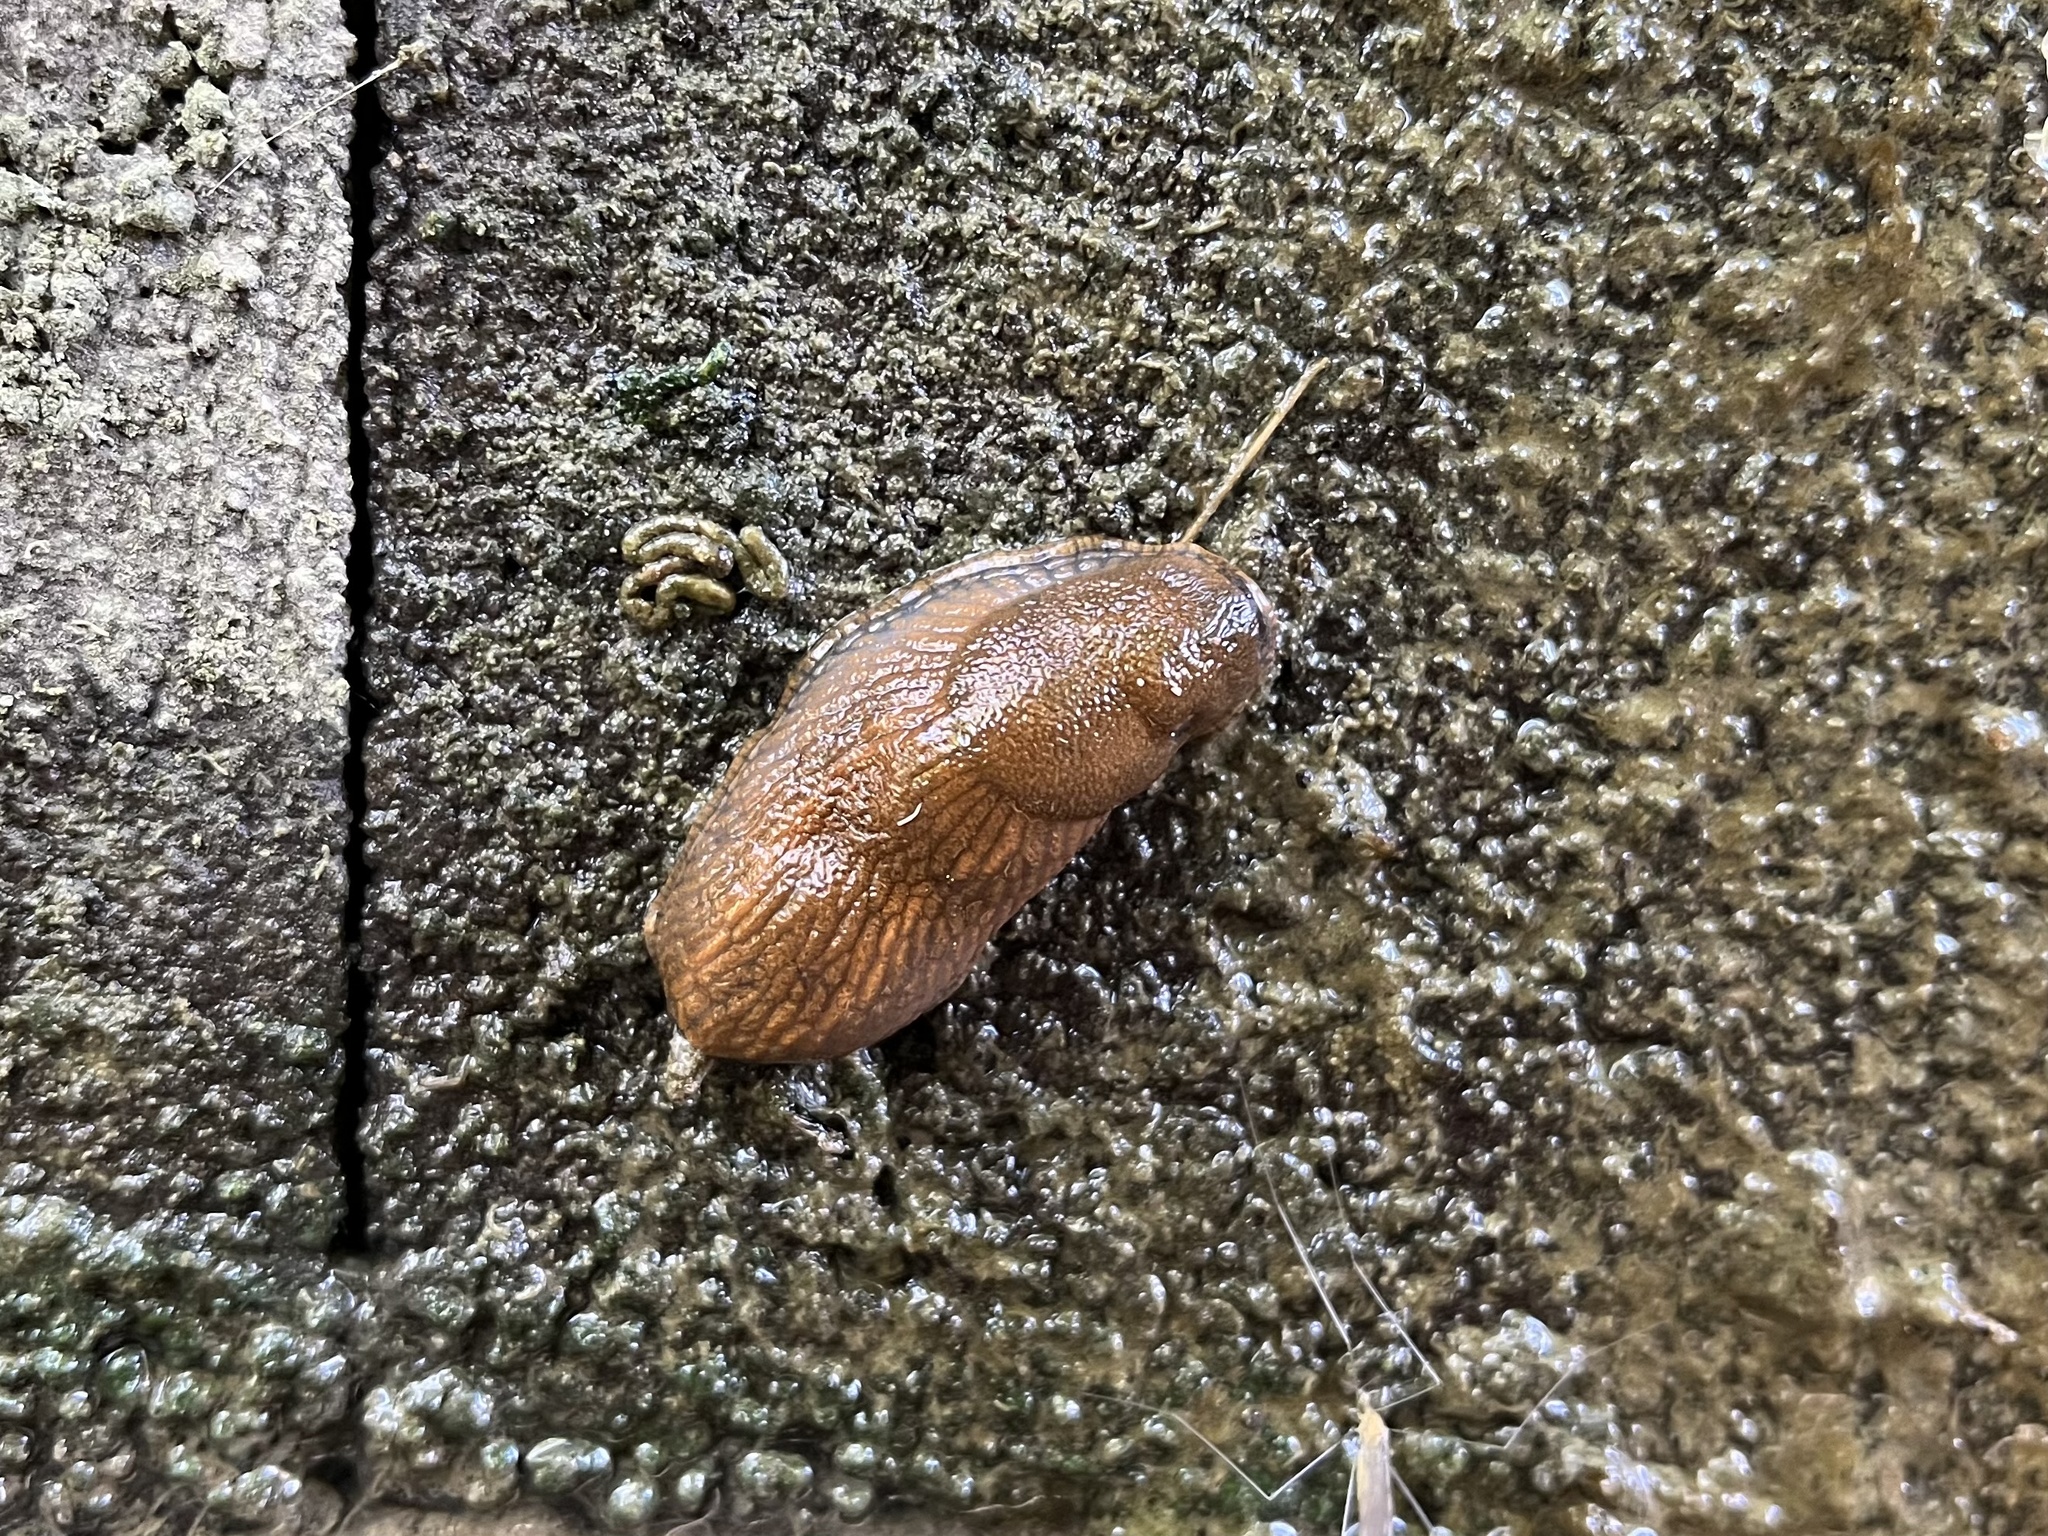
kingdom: Animalia
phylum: Mollusca
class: Gastropoda
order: Stylommatophora
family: Arionidae
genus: Arion
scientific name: Arion vulgaris
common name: Lusitanian slug
